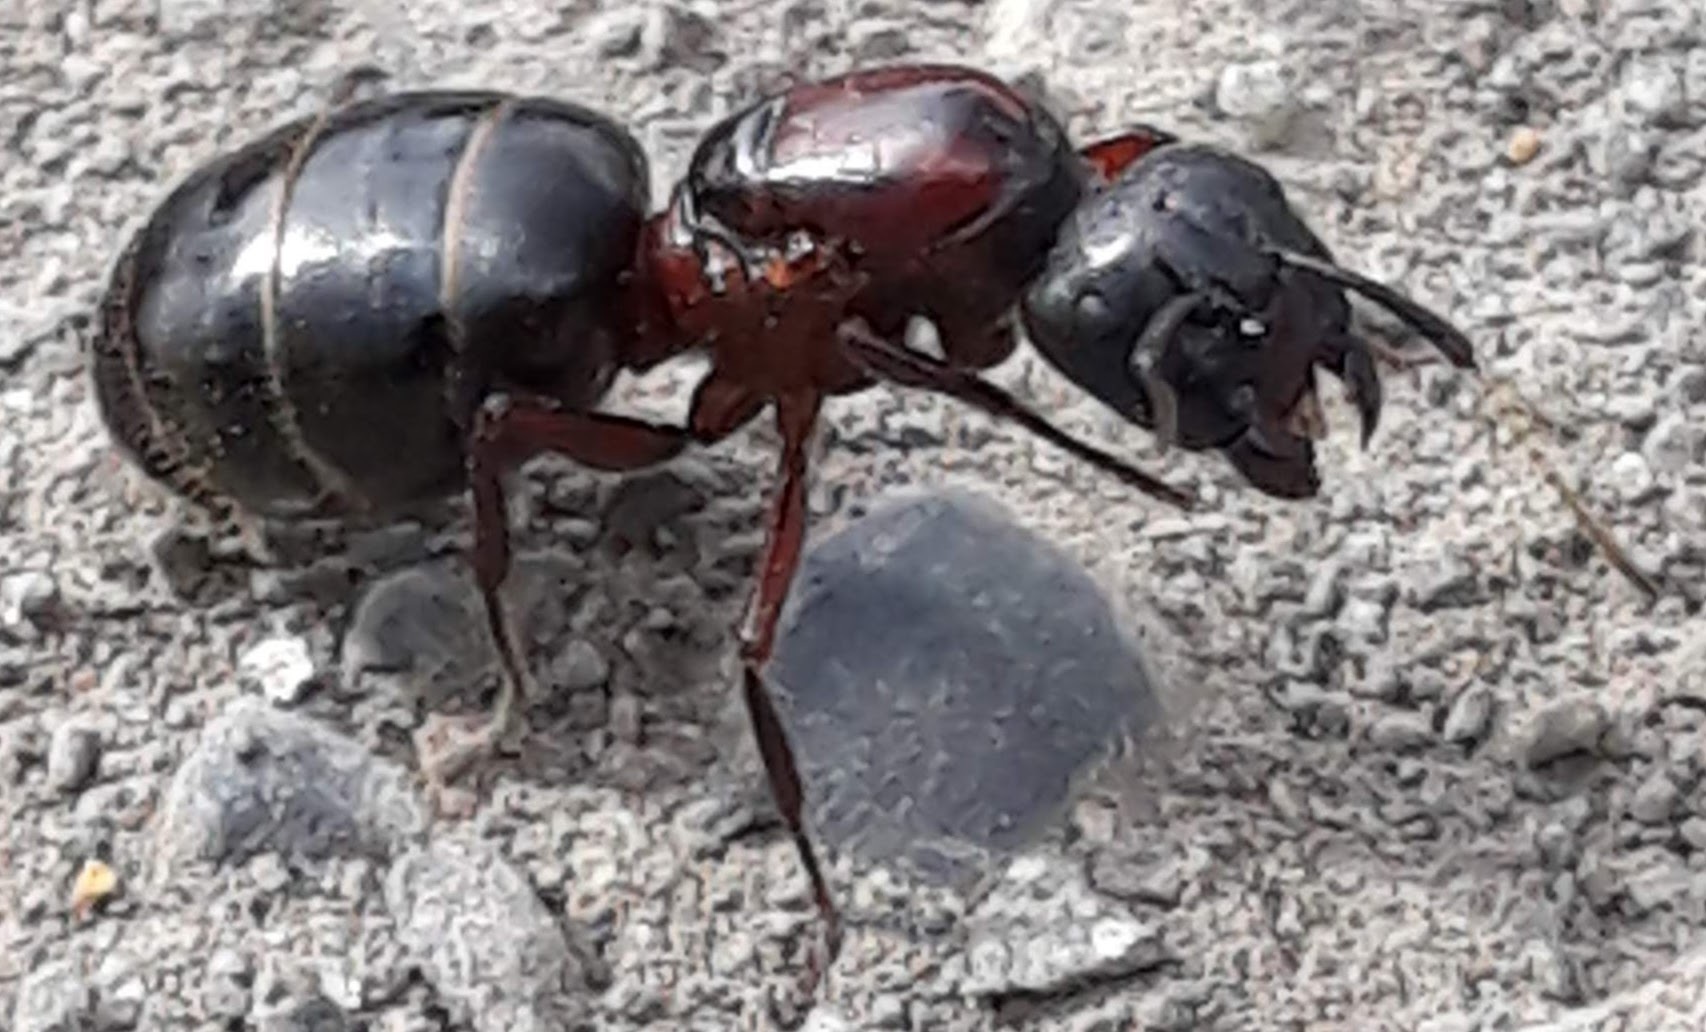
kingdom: Animalia
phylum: Arthropoda
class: Insecta
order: Hymenoptera
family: Formicidae
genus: Camponotus
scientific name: Camponotus novaeboracensis
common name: New york carpenter ant
